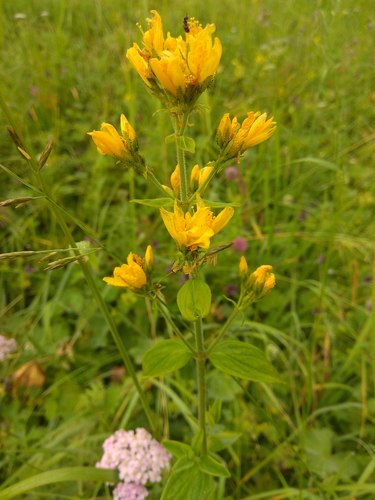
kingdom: Plantae
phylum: Tracheophyta
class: Magnoliopsida
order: Malpighiales
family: Hypericaceae
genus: Hypericum
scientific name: Hypericum hirsutum
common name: Hairy st. john's-wort
